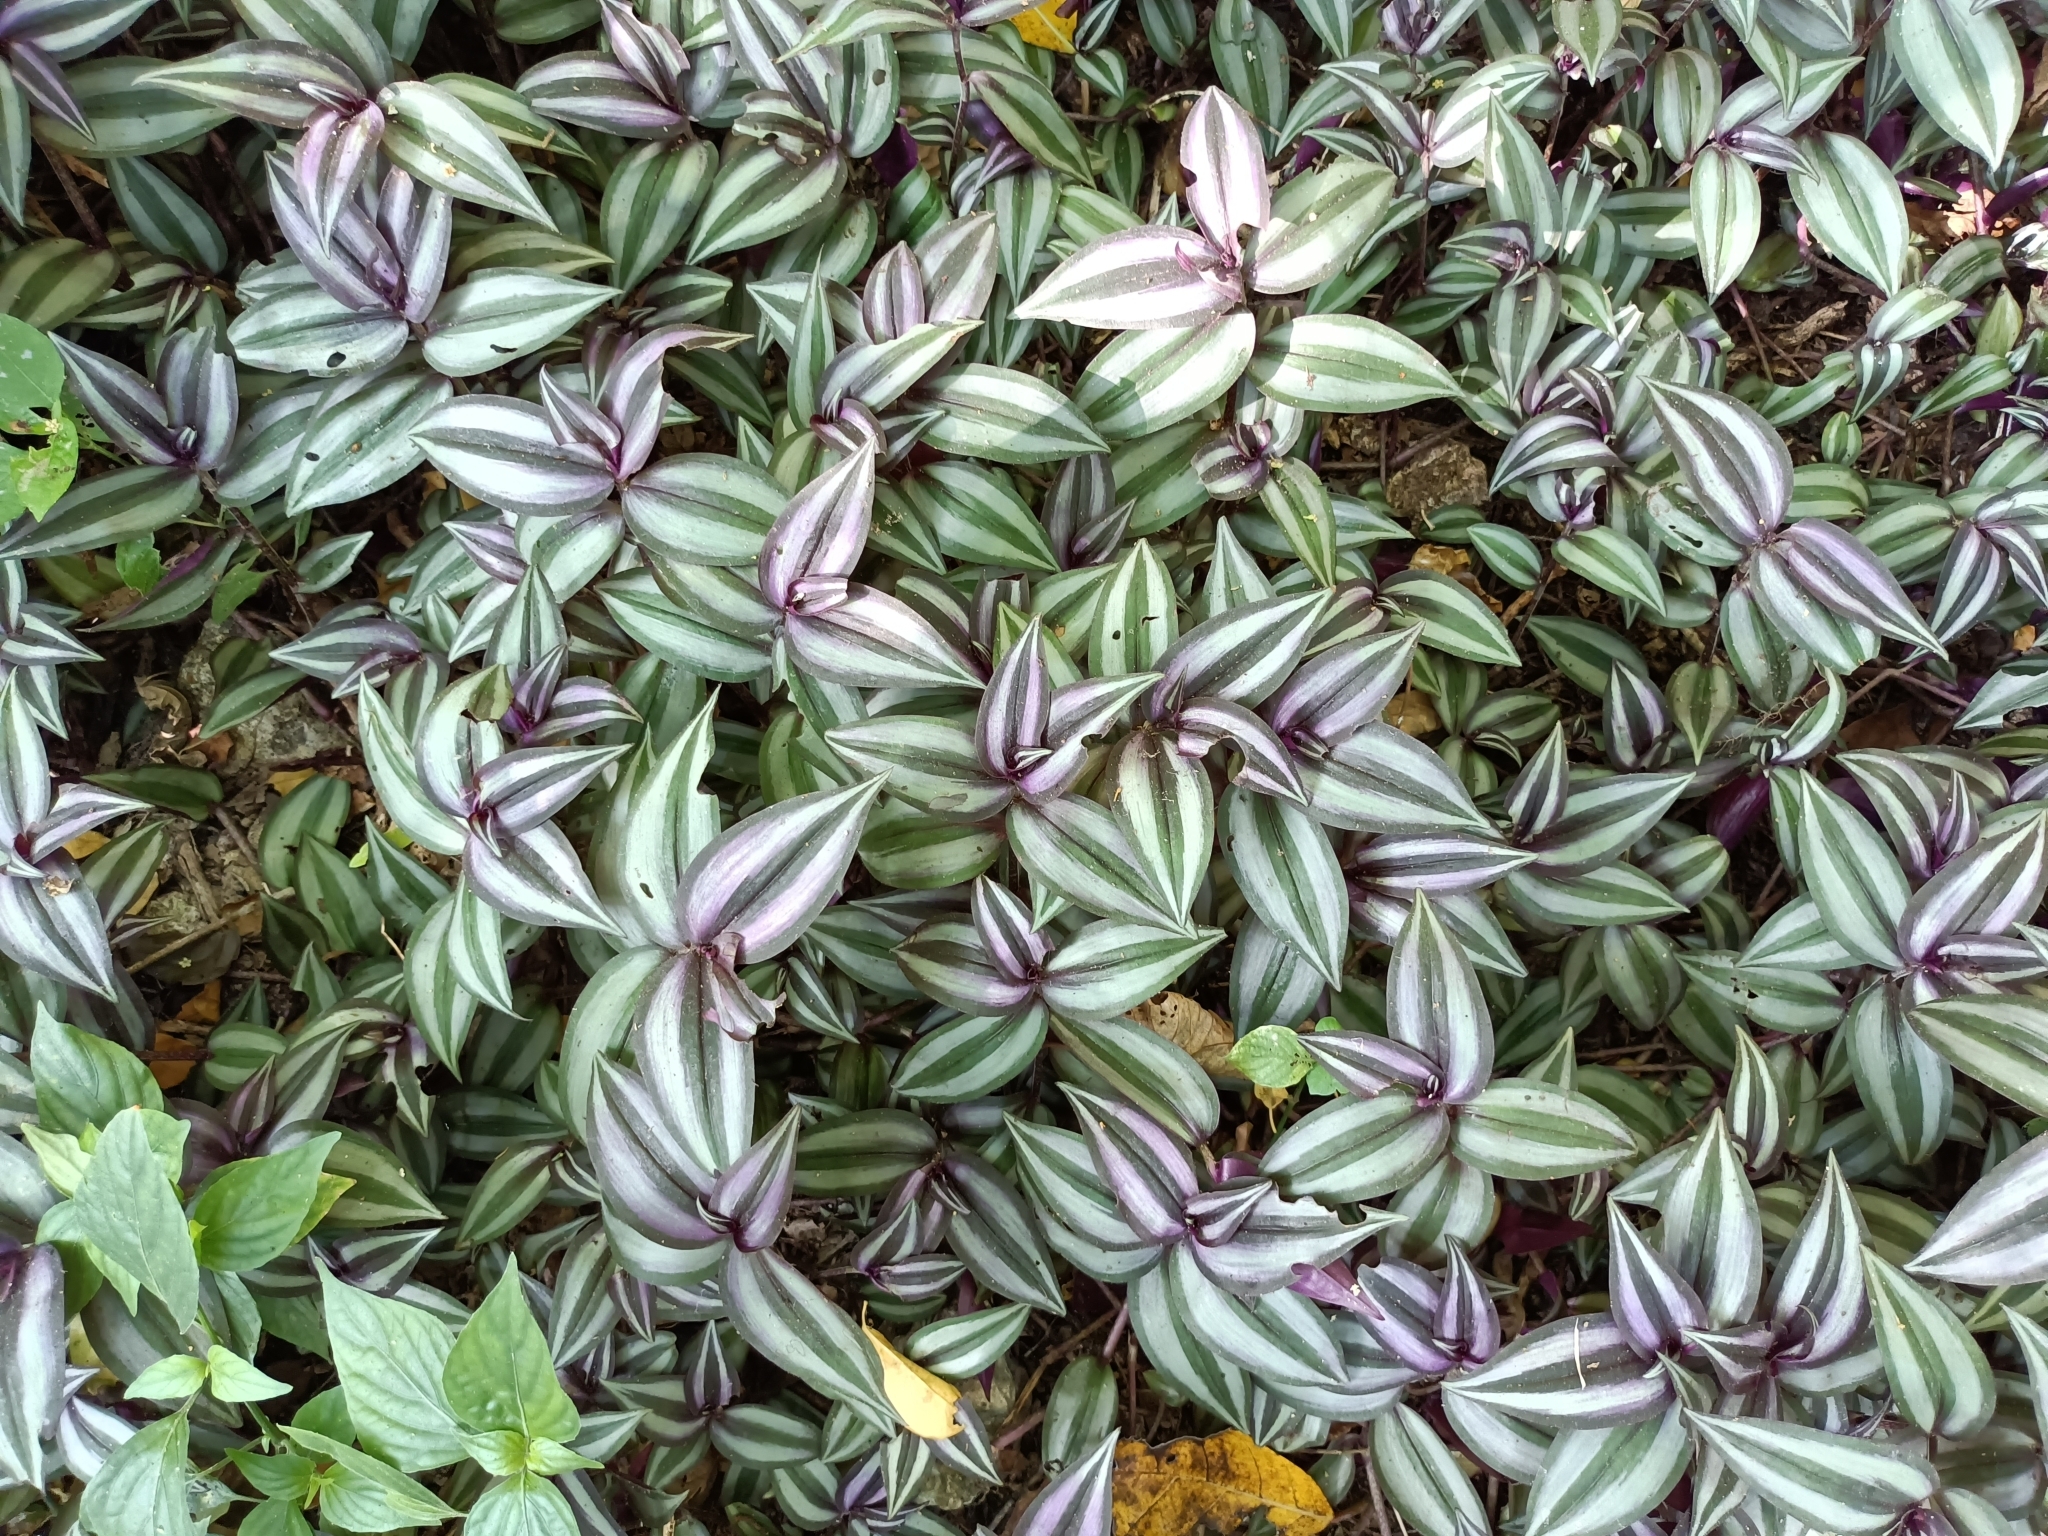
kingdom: Plantae
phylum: Tracheophyta
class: Liliopsida
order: Commelinales
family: Commelinaceae
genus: Tradescantia
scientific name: Tradescantia zebrina
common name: Inchplant
